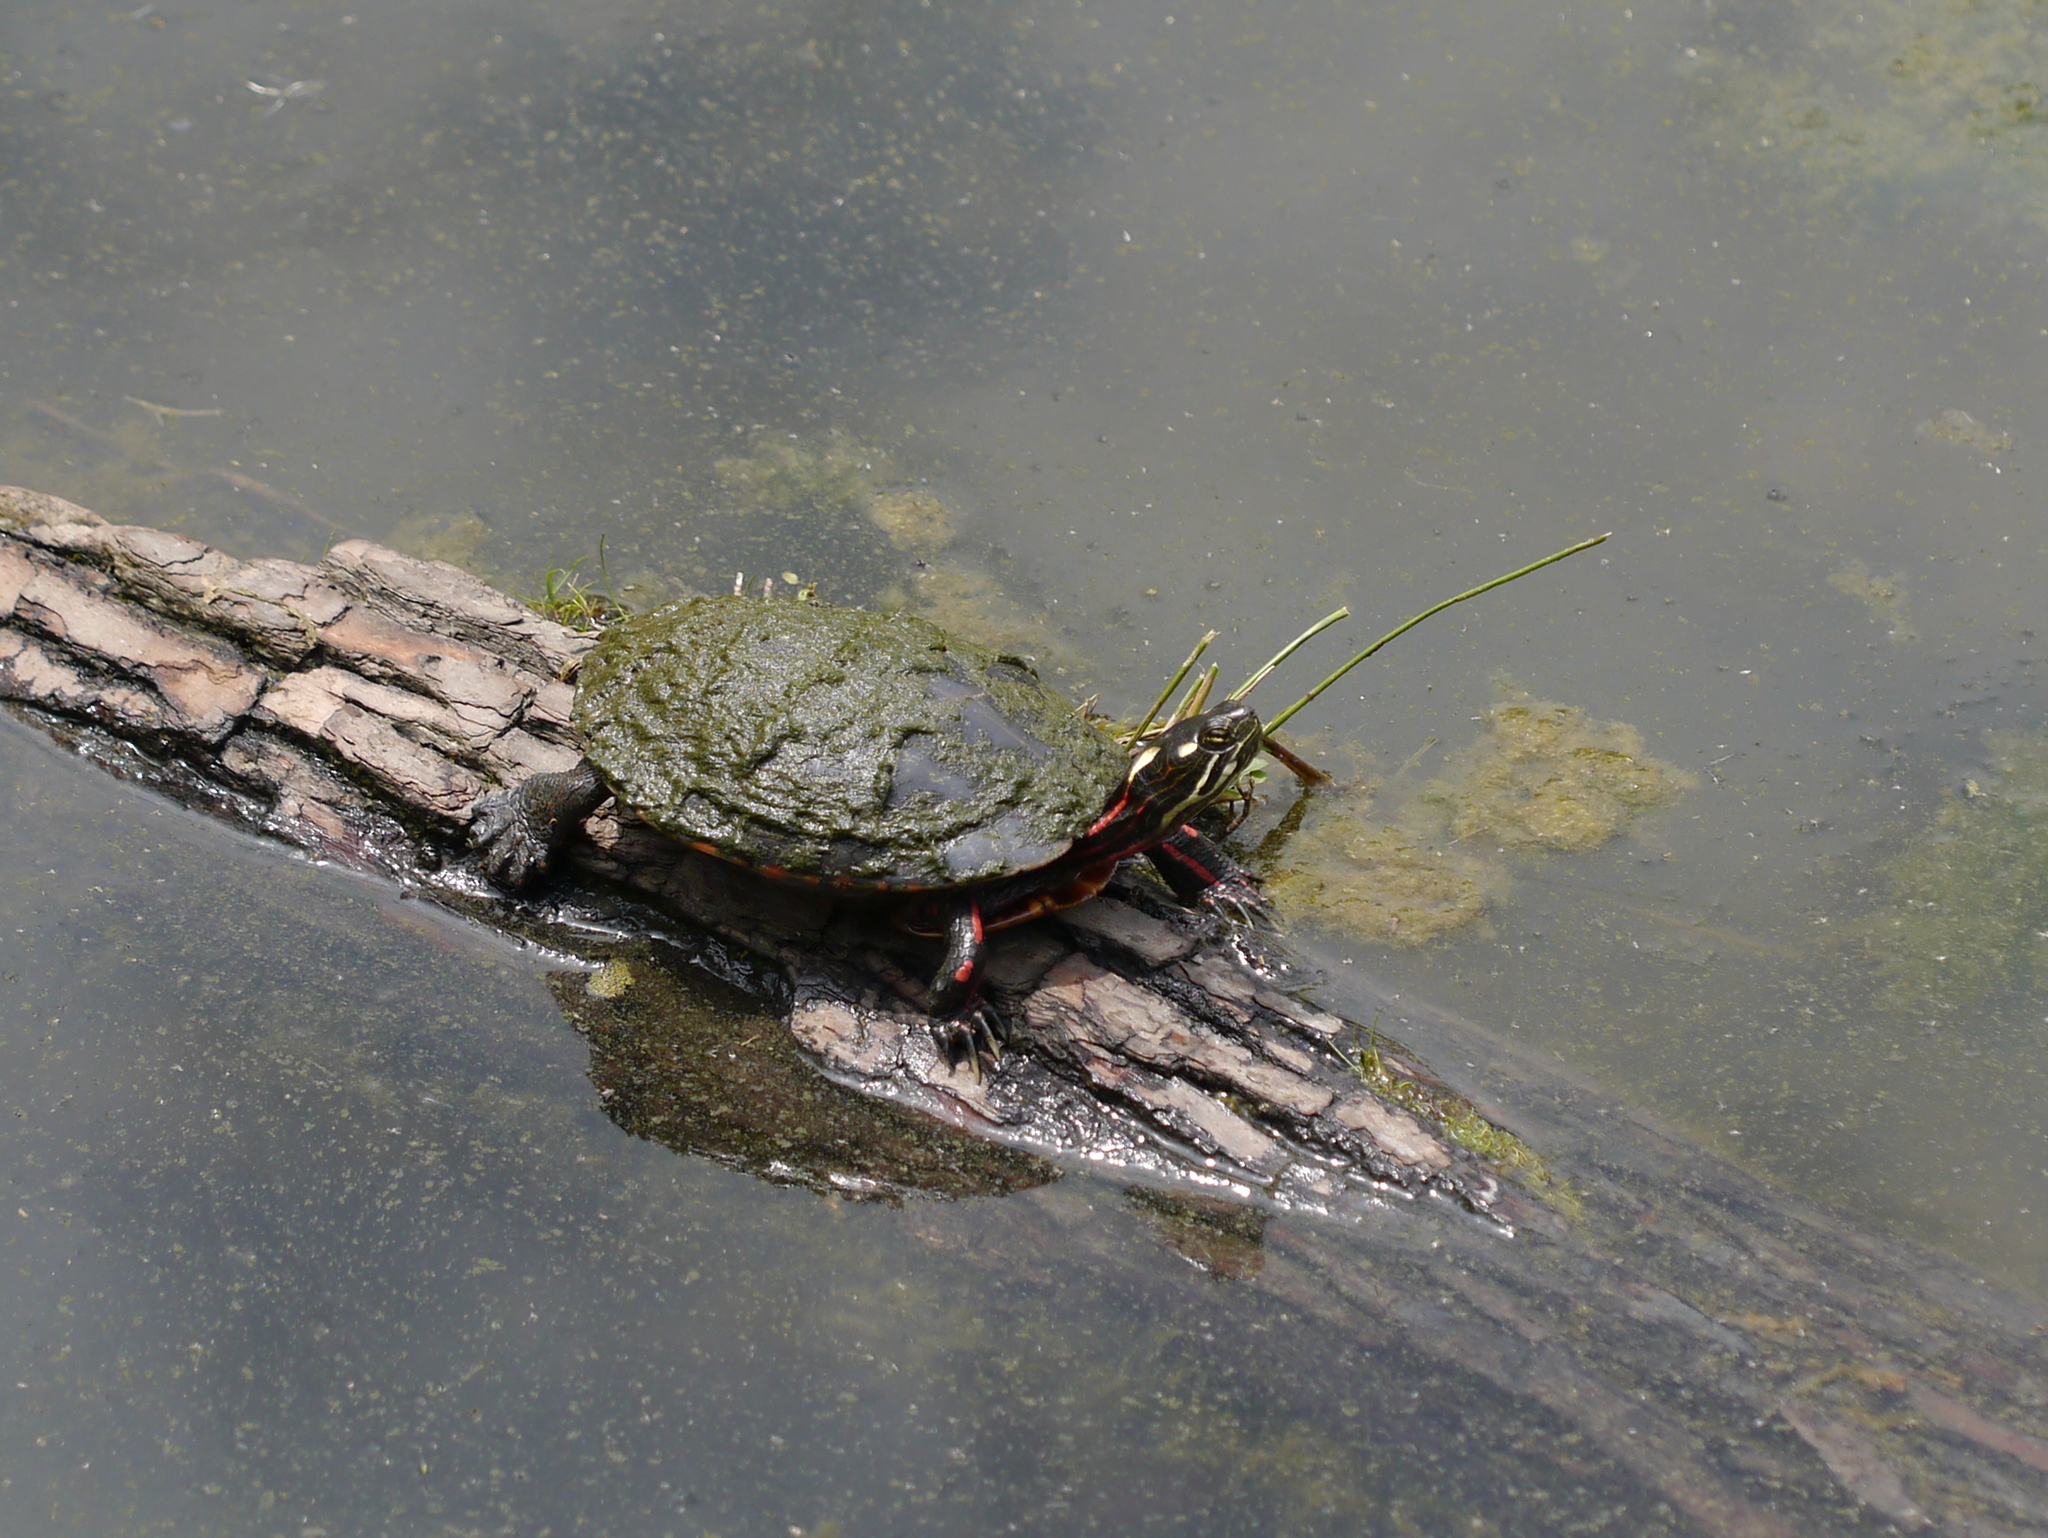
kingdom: Animalia
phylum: Chordata
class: Testudines
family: Emydidae
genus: Chrysemys
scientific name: Chrysemys picta
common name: Painted turtle
